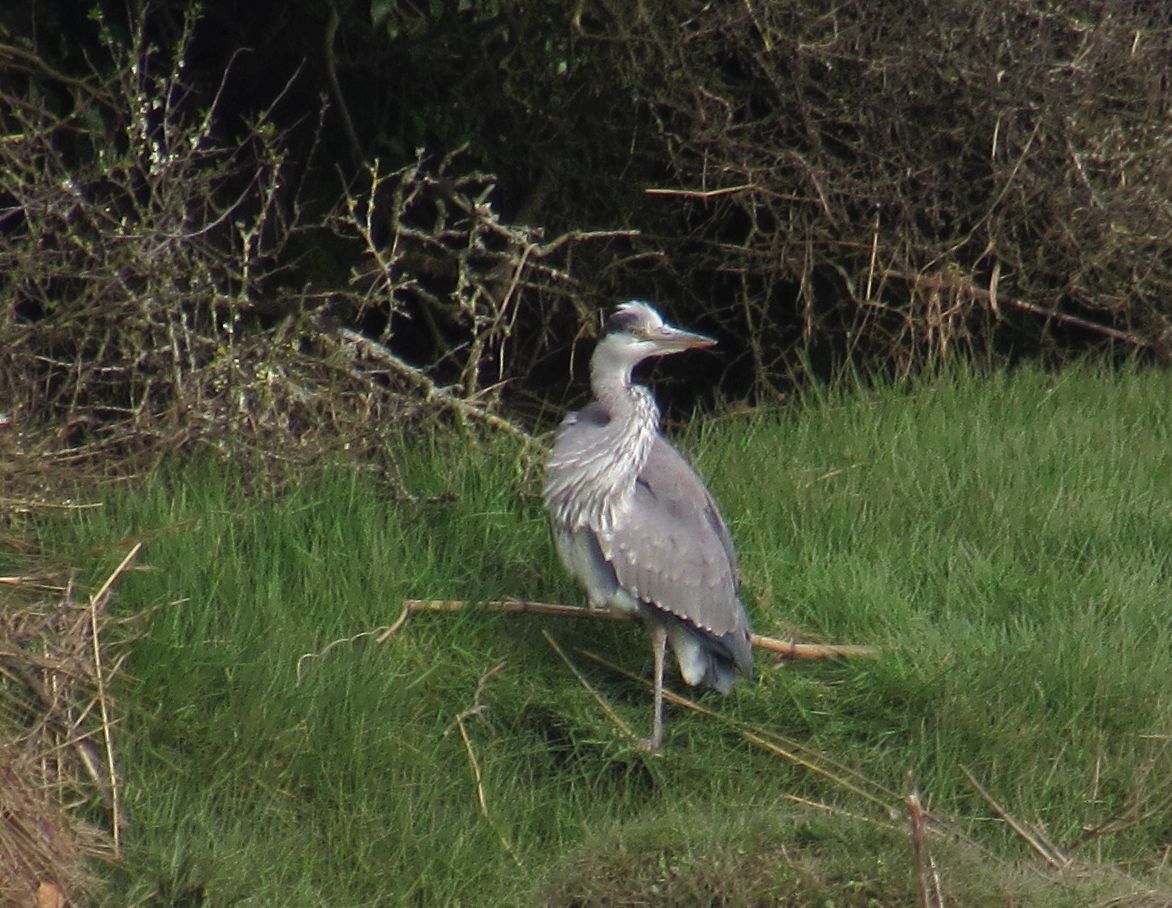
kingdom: Animalia
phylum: Chordata
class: Aves
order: Pelecaniformes
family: Ardeidae
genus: Ardea
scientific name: Ardea cinerea
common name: Grey heron
